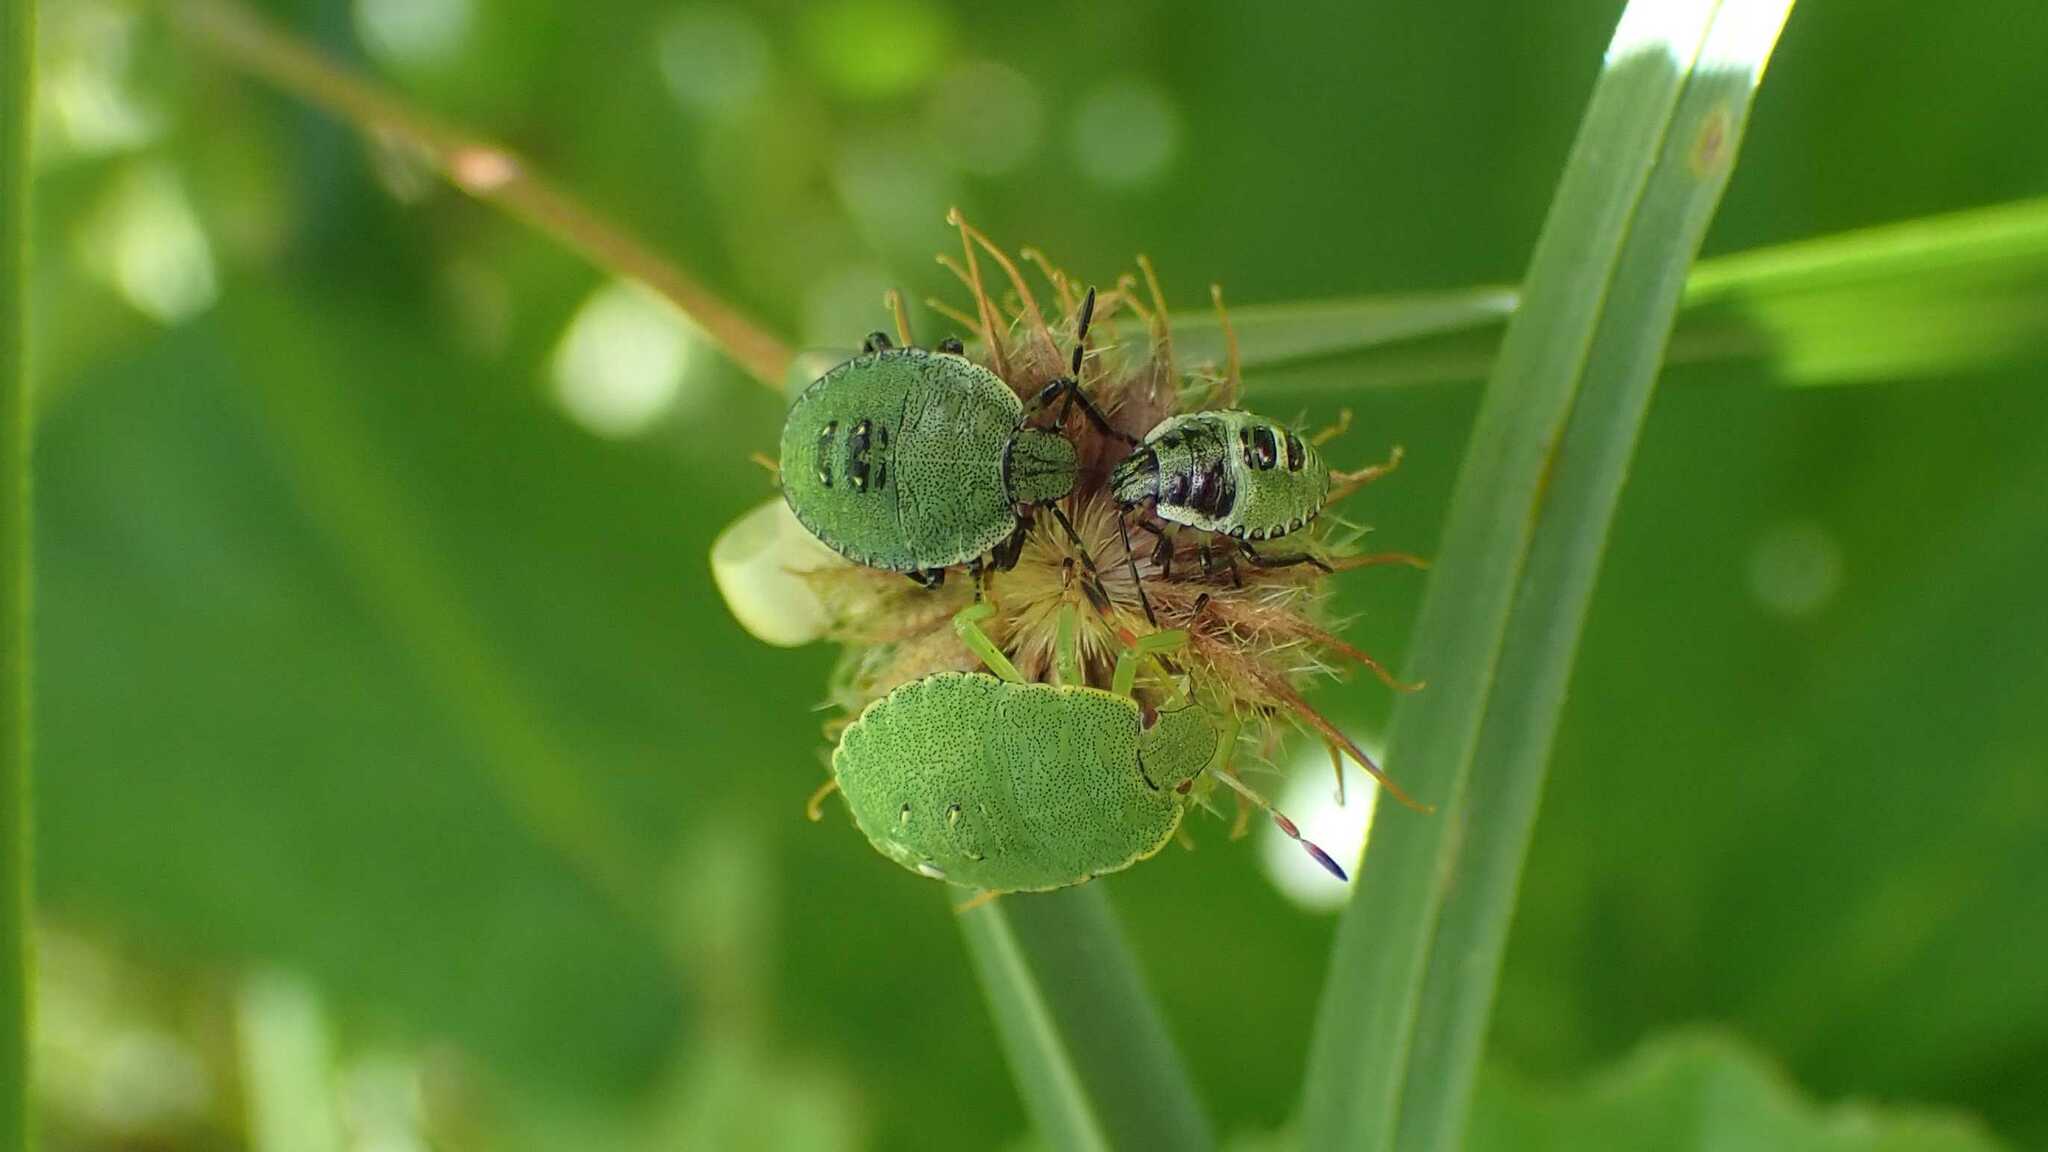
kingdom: Animalia
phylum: Arthropoda
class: Insecta
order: Hemiptera
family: Pentatomidae
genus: Palomena
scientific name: Palomena prasina
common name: Green shieldbug
